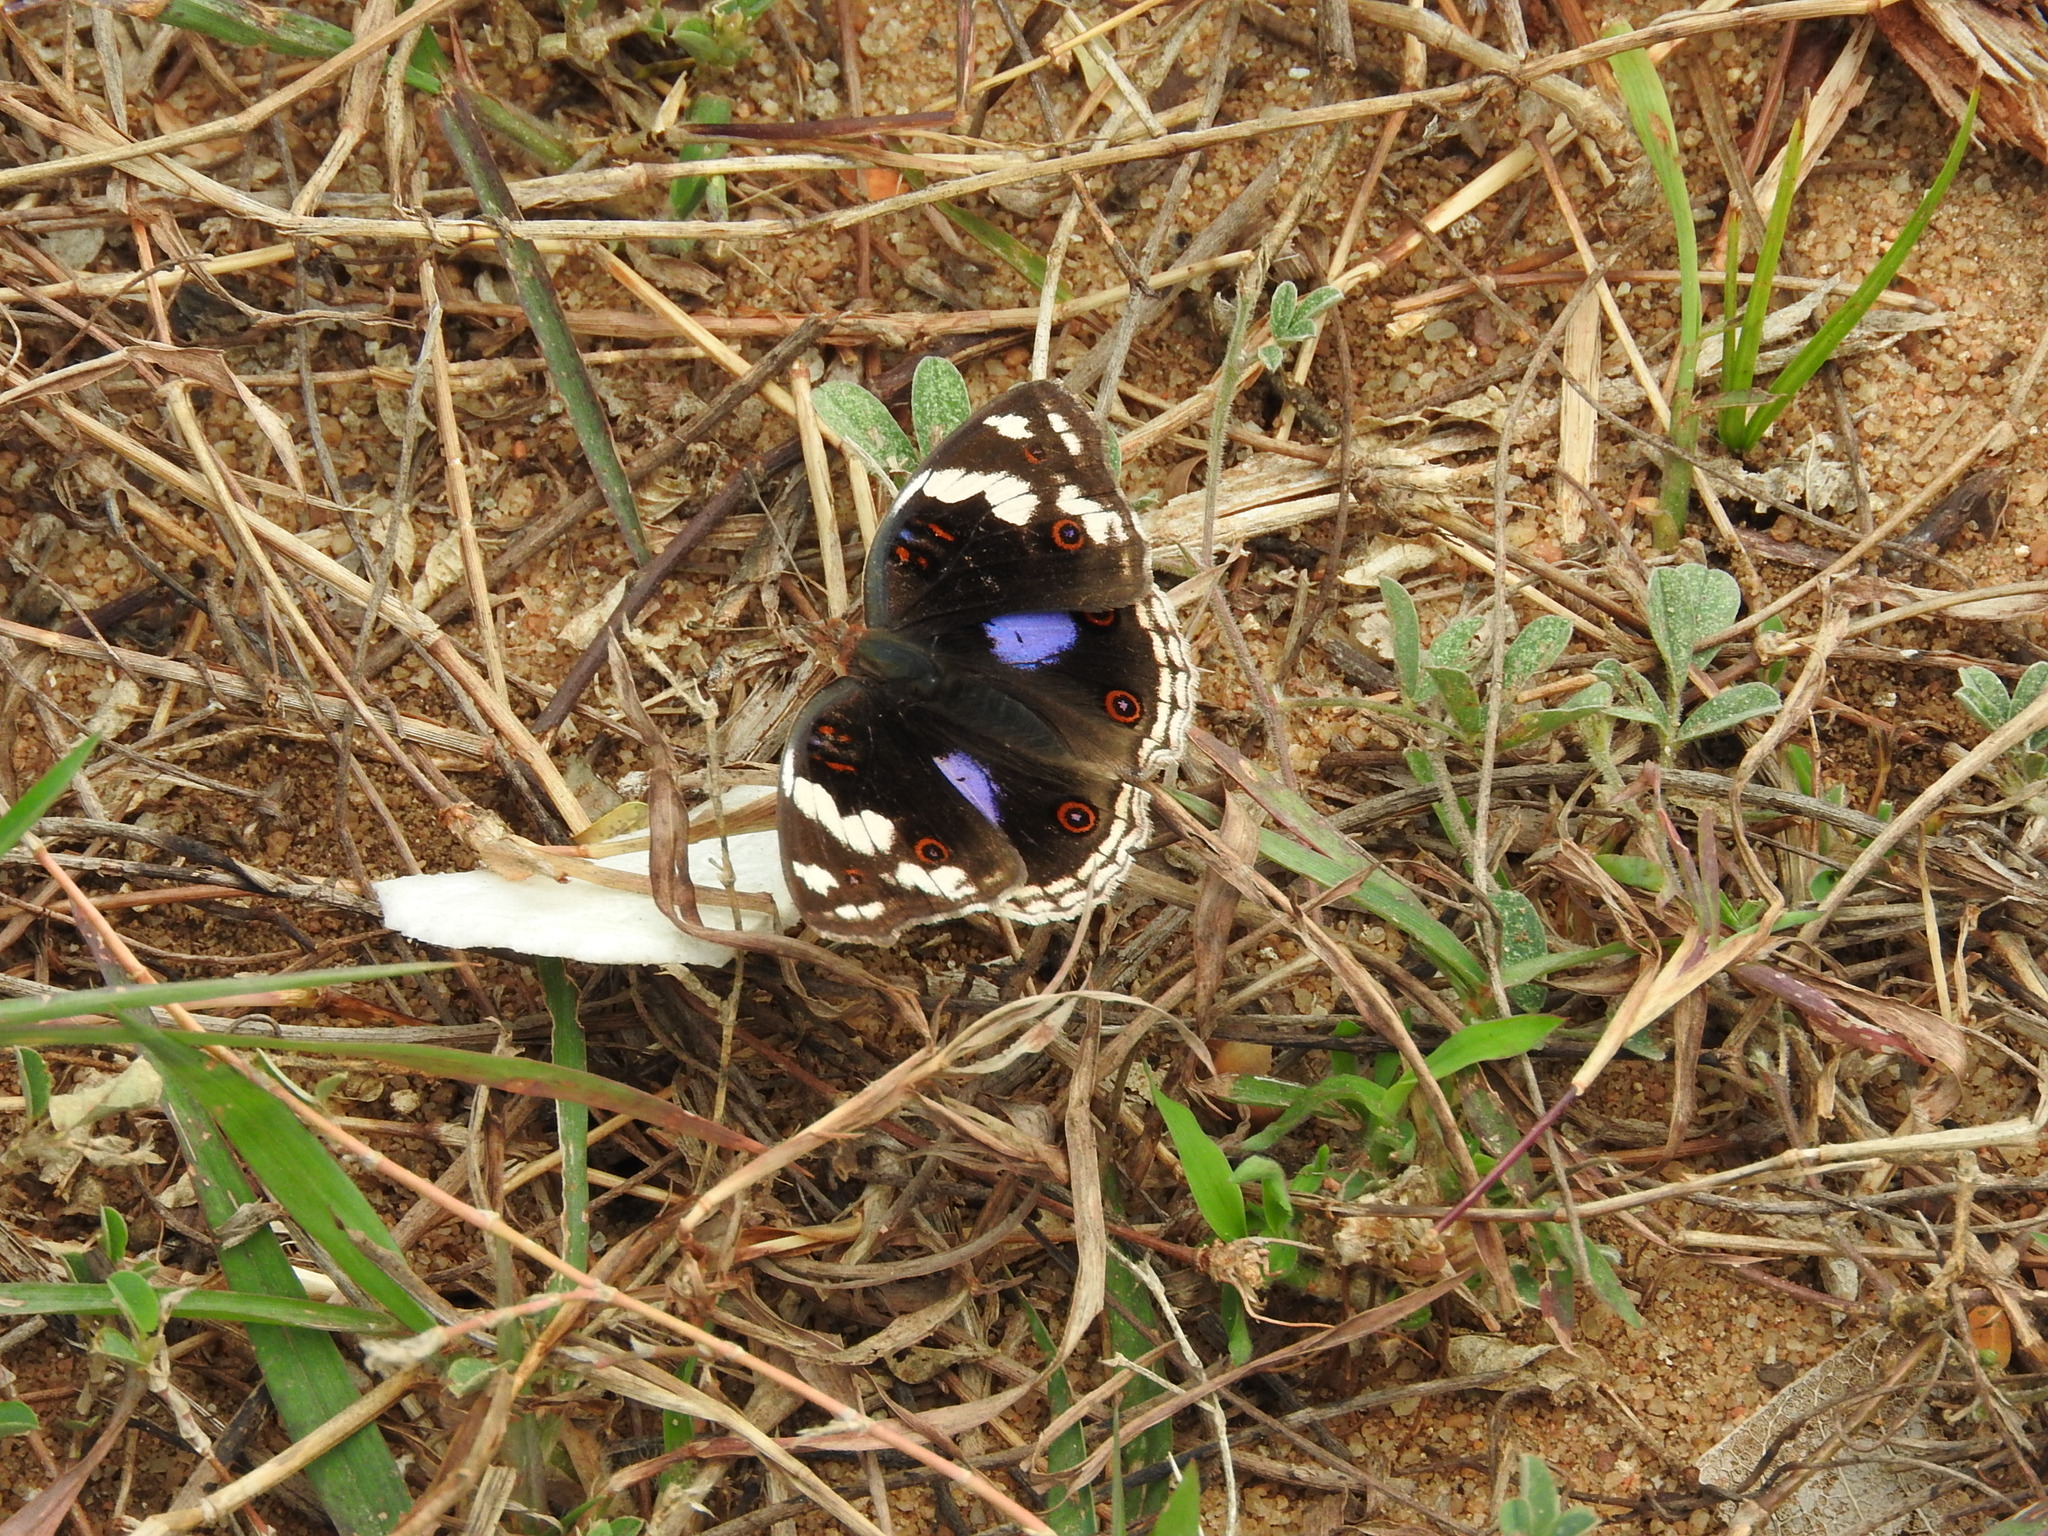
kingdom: Animalia
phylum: Arthropoda
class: Insecta
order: Lepidoptera
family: Nymphalidae
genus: Junonia
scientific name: Junonia oenone
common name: Dark blue pansy
